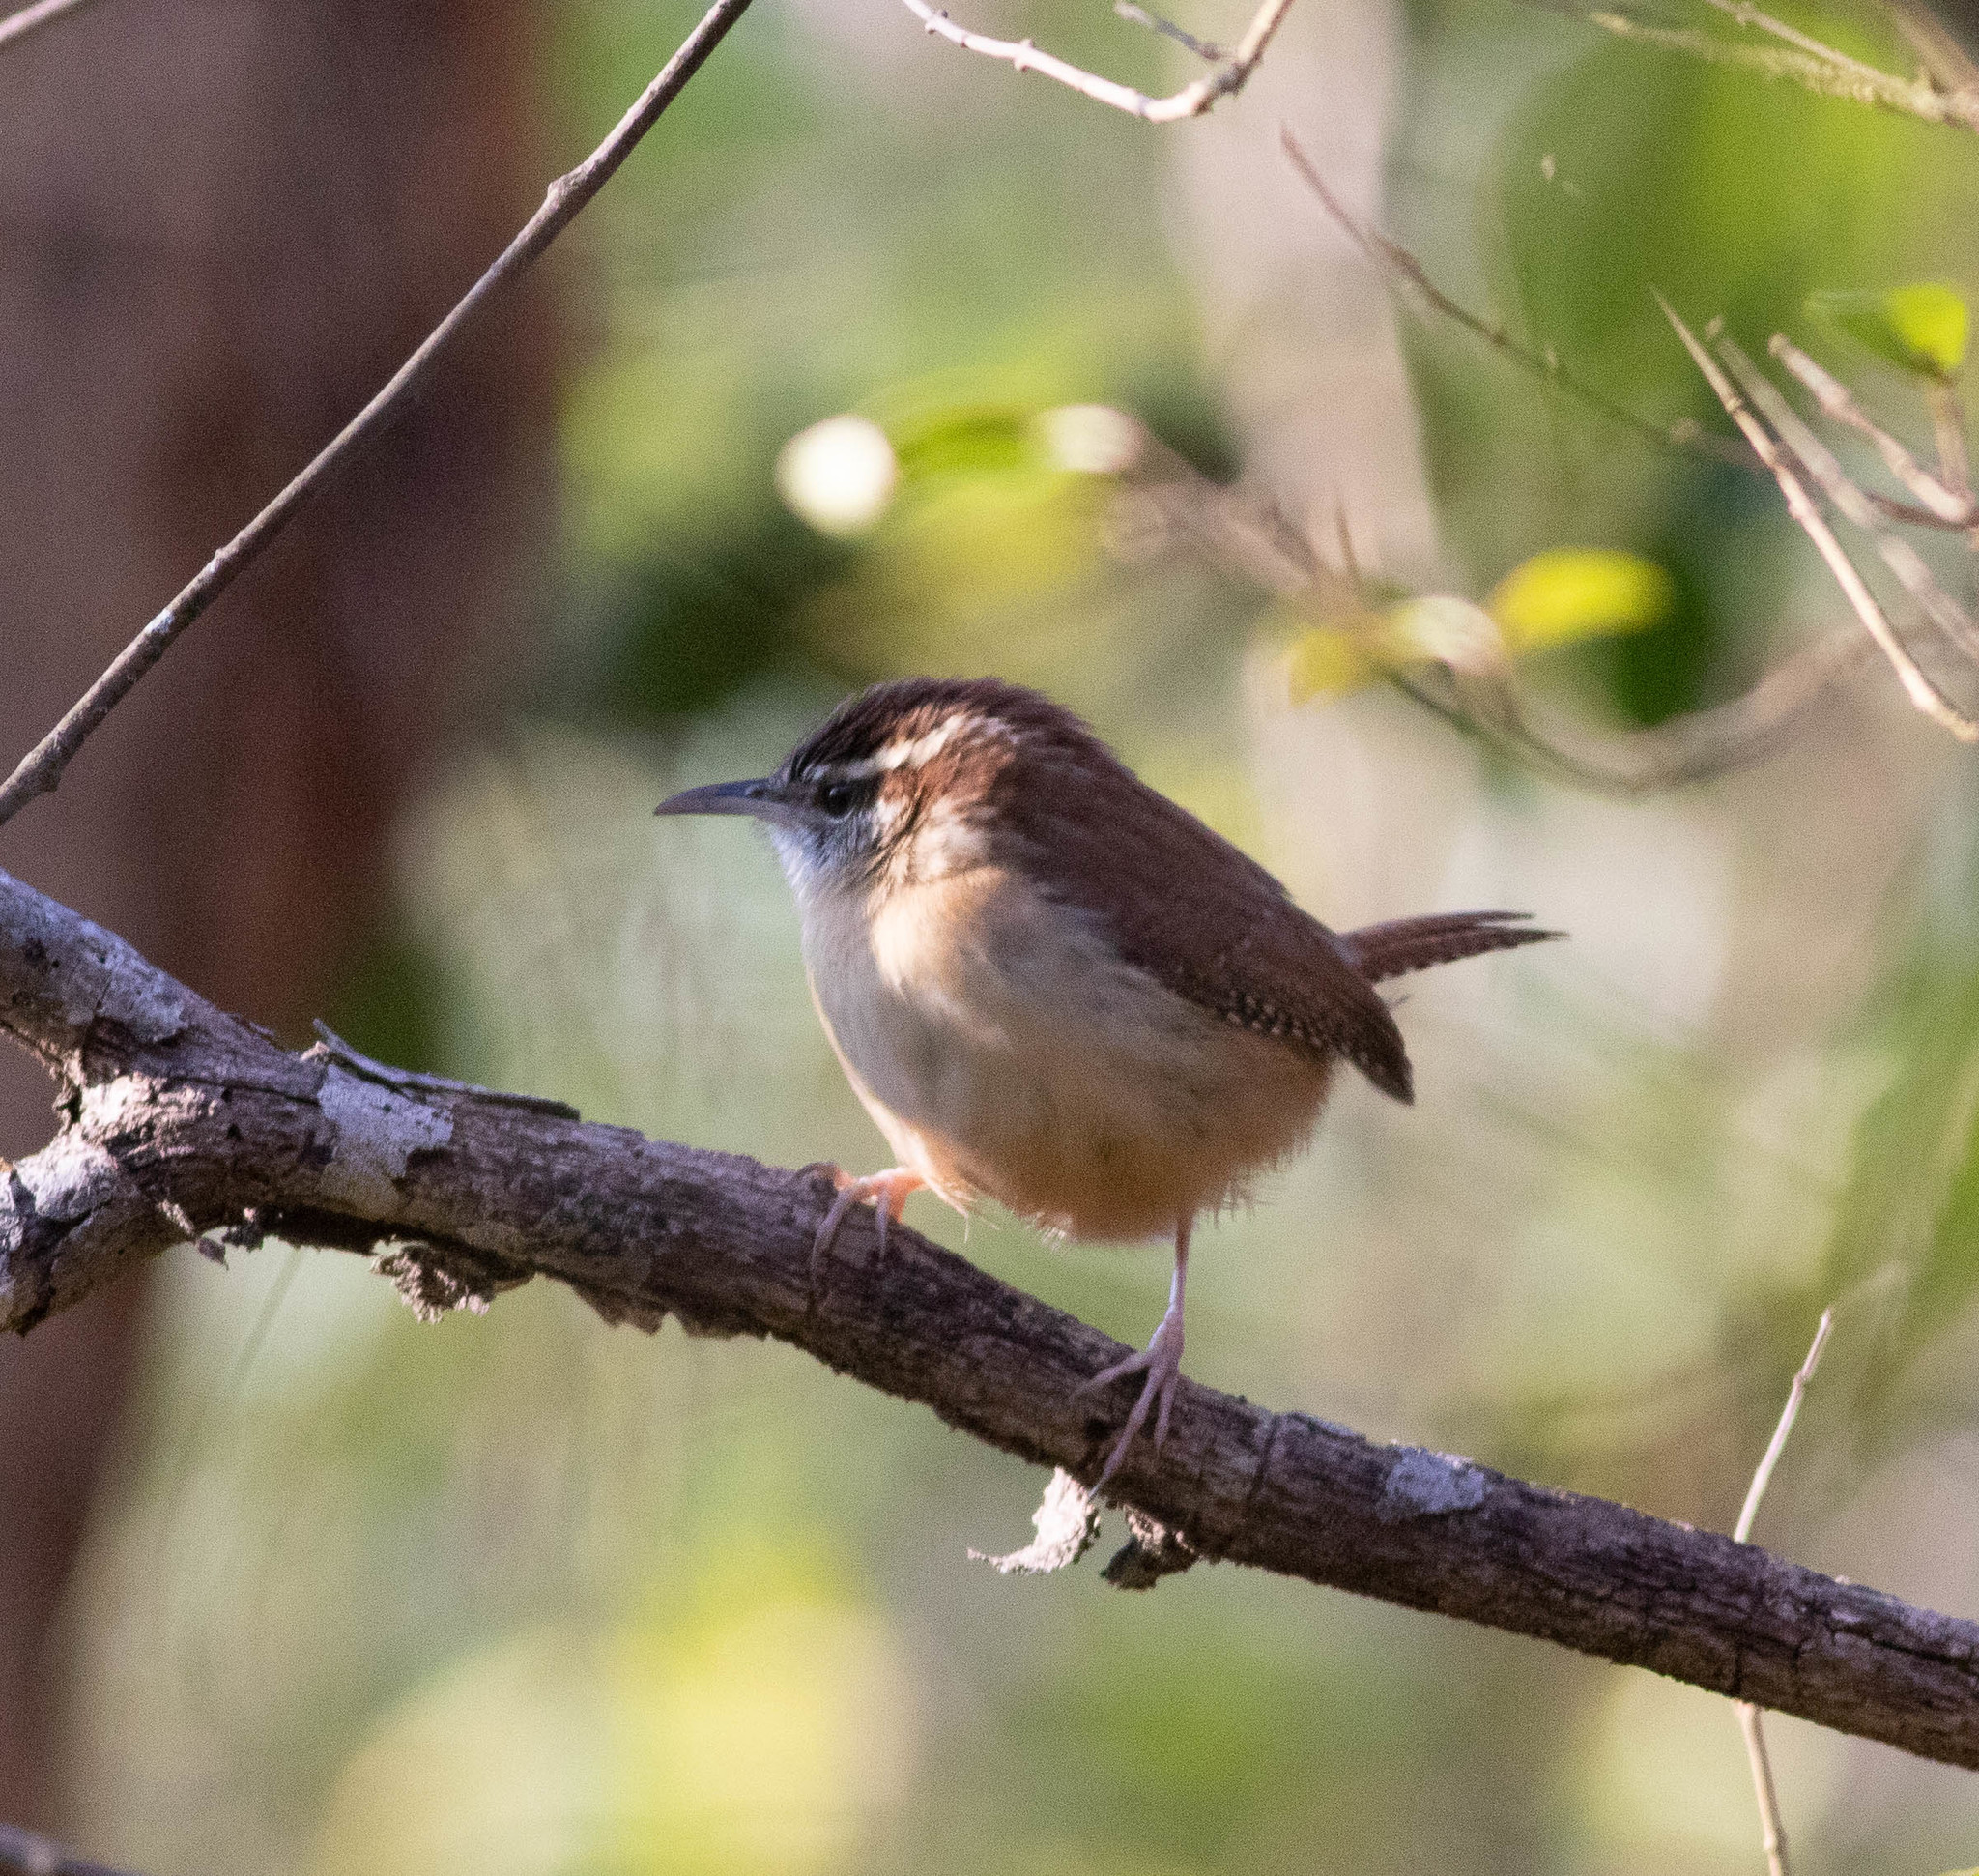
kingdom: Animalia
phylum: Chordata
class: Aves
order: Passeriformes
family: Troglodytidae
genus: Thryothorus
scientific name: Thryothorus ludovicianus
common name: Carolina wren
